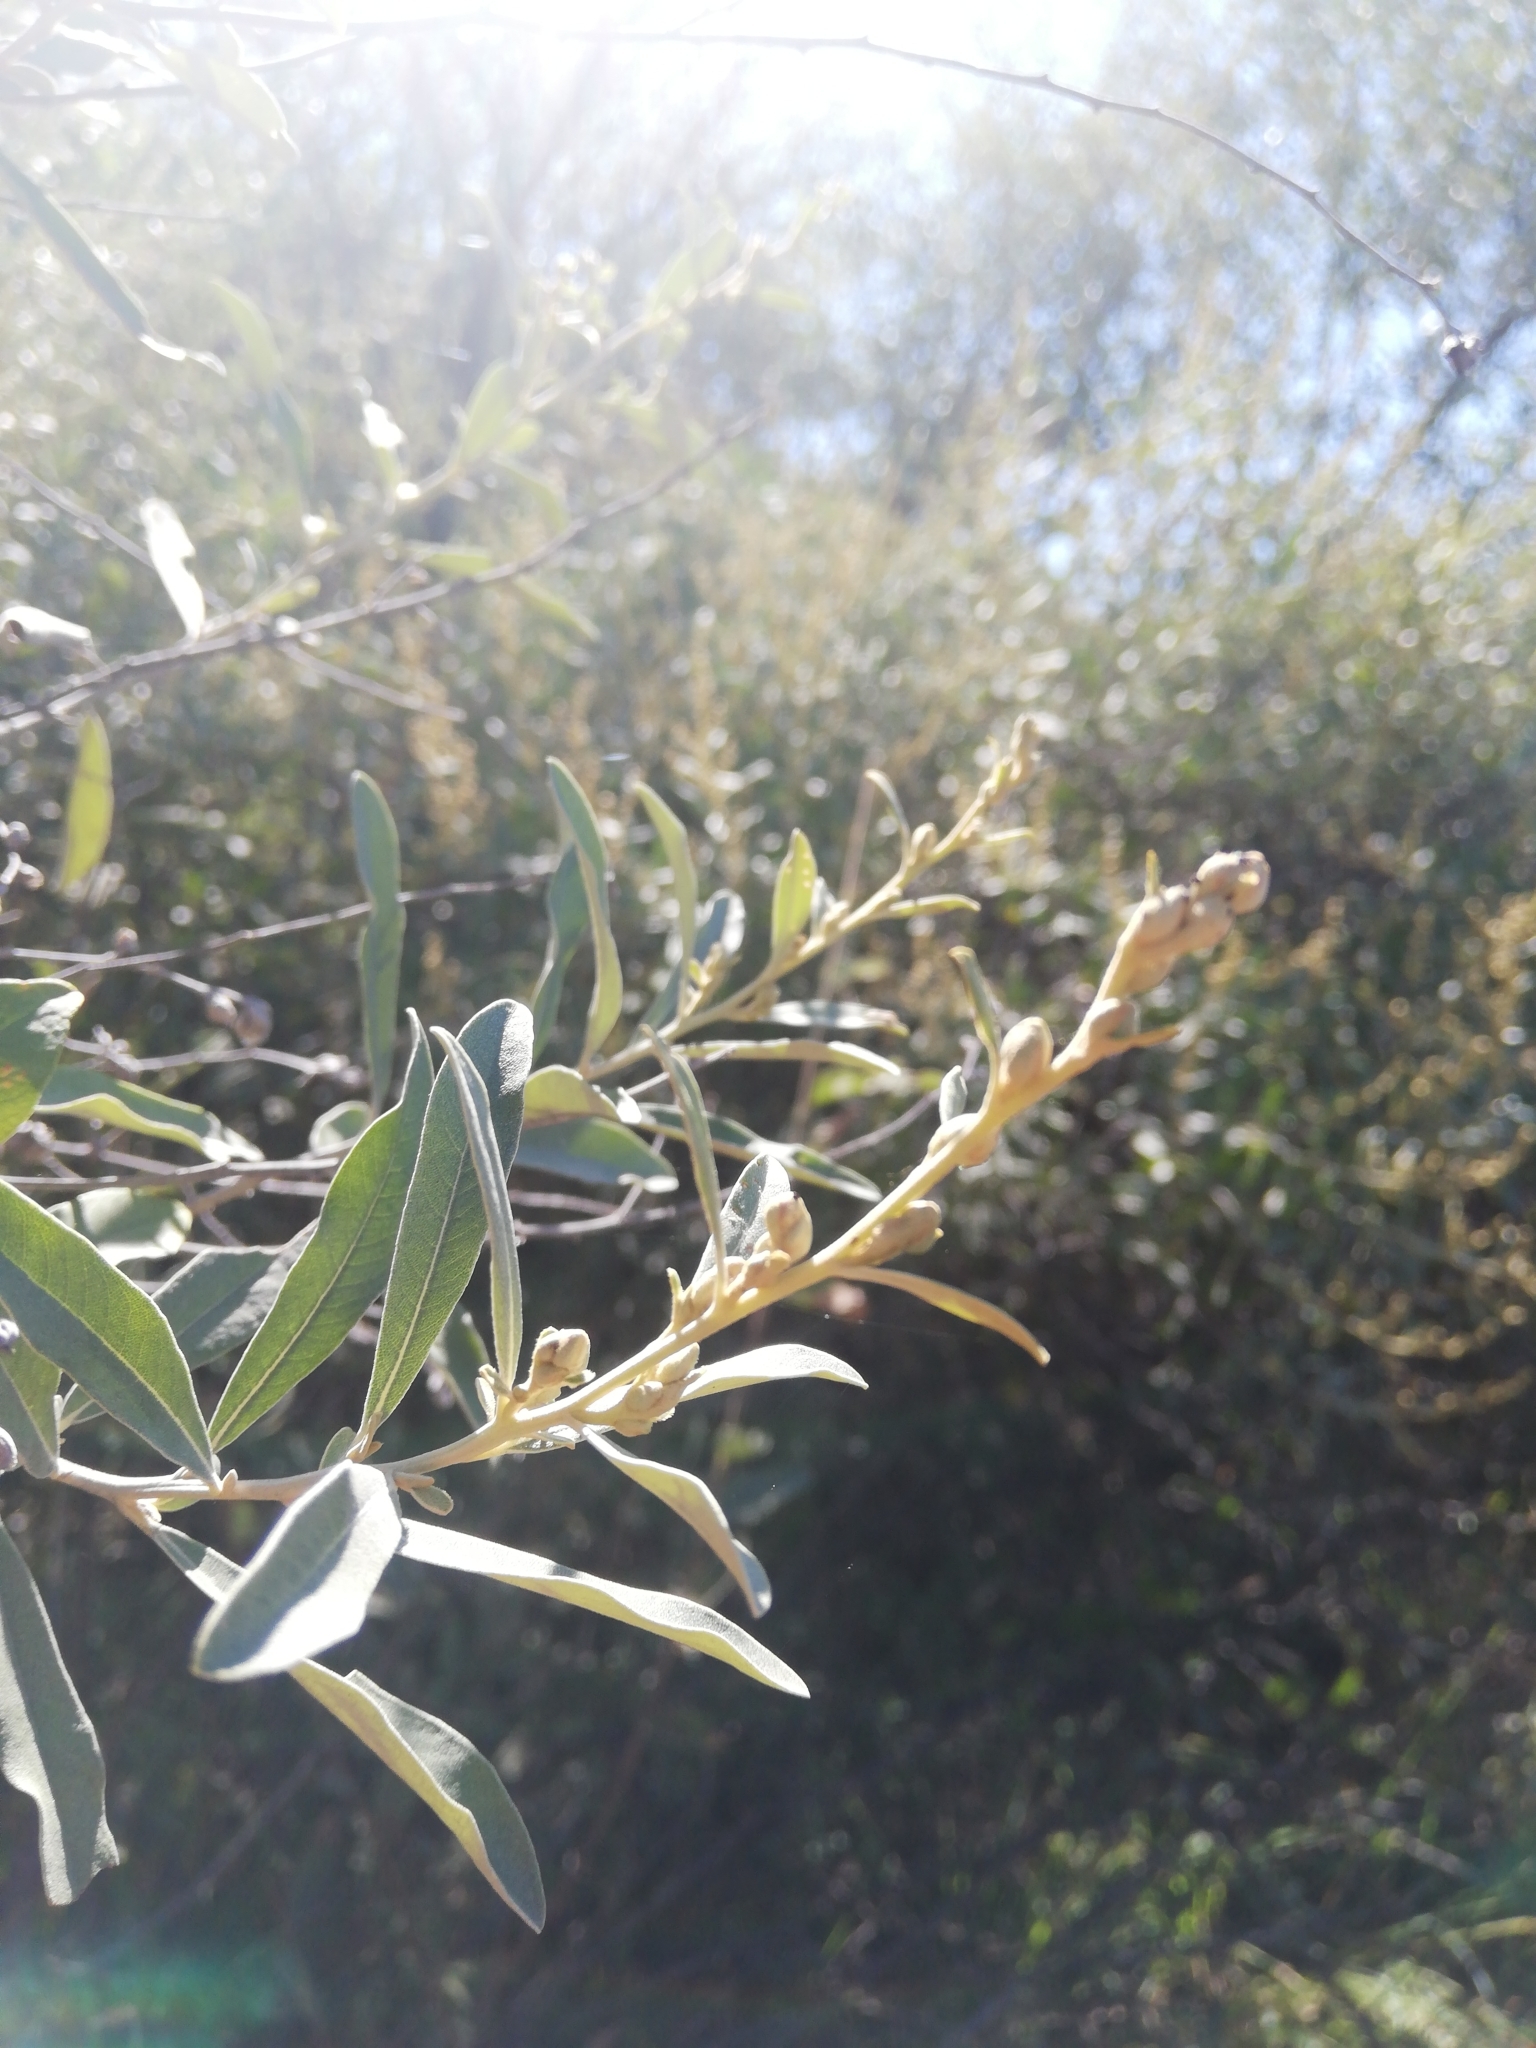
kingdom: Plantae
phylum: Tracheophyta
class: Magnoliopsida
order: Asterales
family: Asteraceae
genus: Tarchonanthus
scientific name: Tarchonanthus camphoratus
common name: Camphorwood
